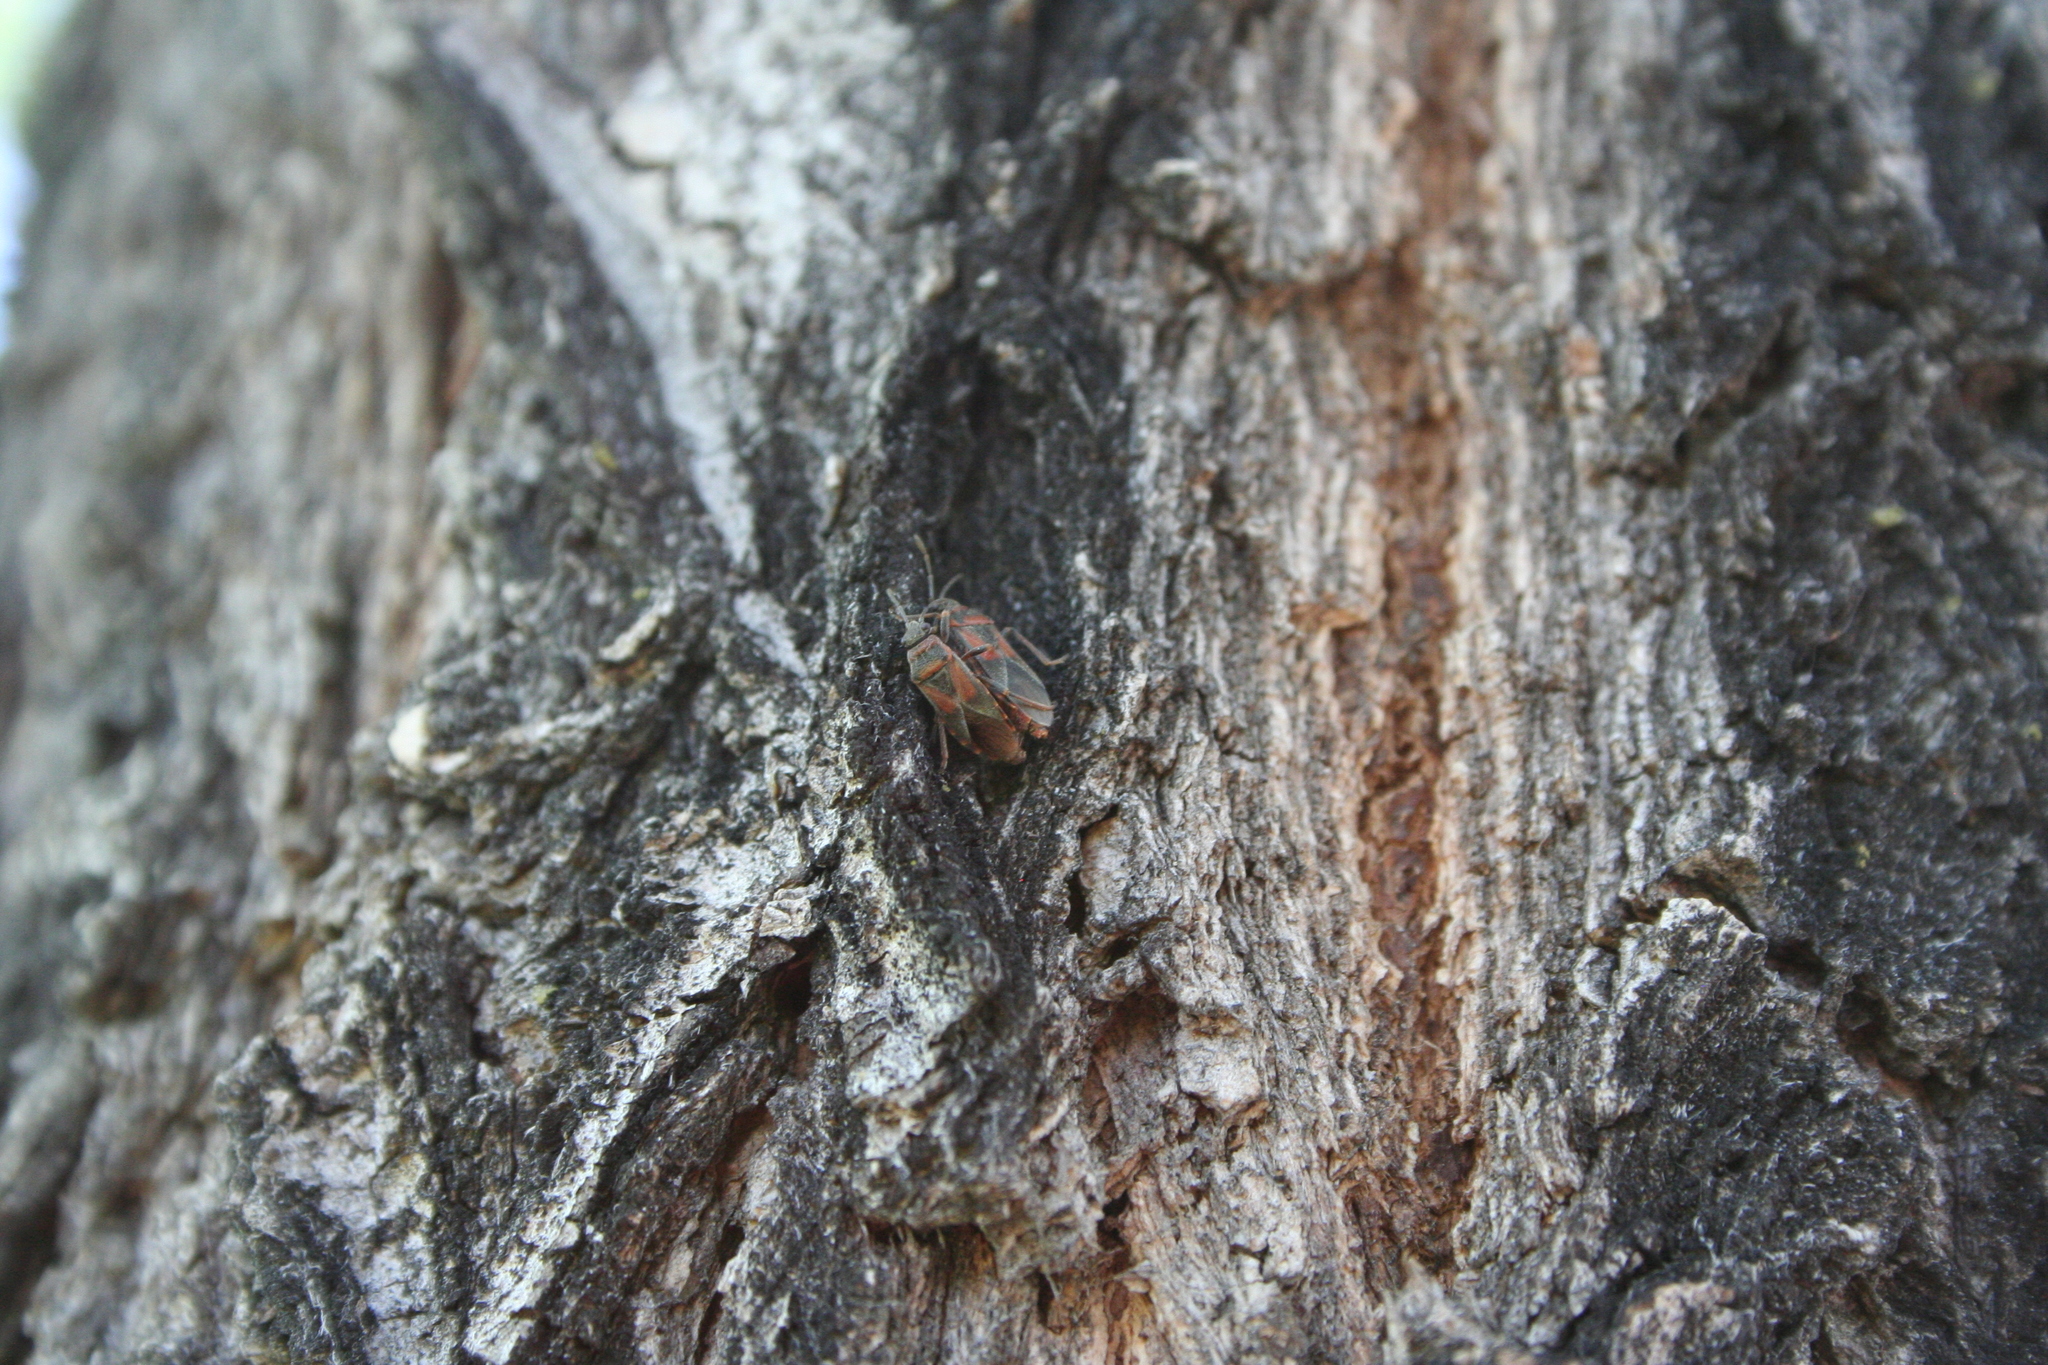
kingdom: Animalia
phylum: Arthropoda
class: Insecta
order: Hemiptera
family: Lygaeidae
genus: Arocatus
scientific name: Arocatus melanocephalus
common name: Lygaeid bug
